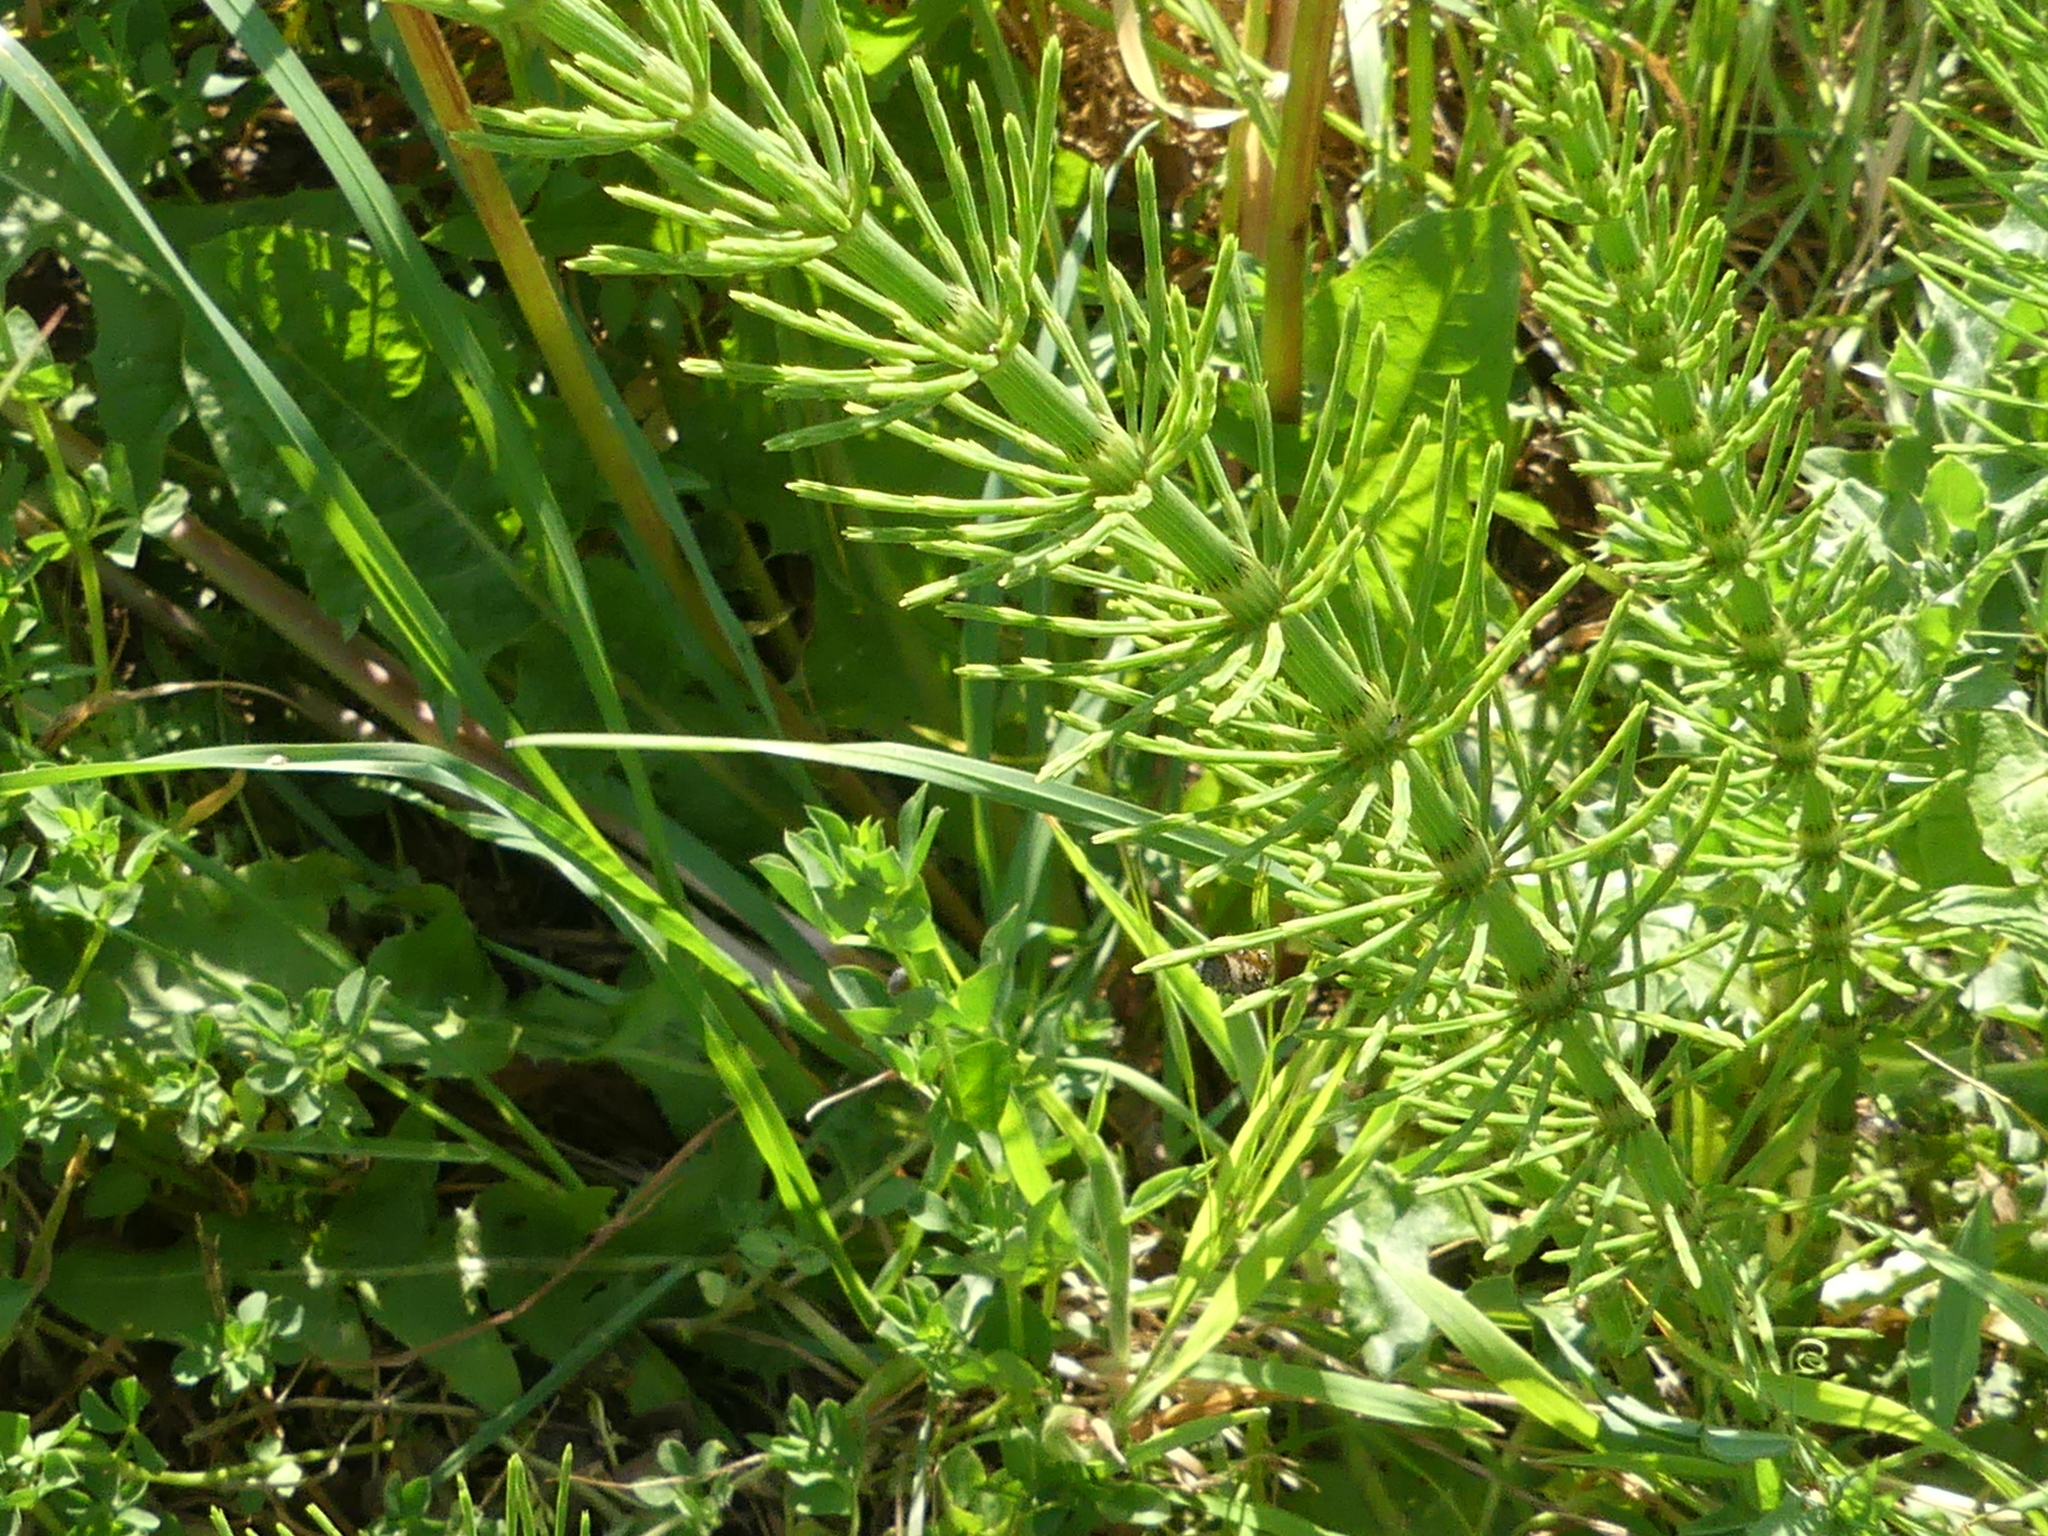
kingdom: Plantae
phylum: Tracheophyta
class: Polypodiopsida
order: Equisetales
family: Equisetaceae
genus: Equisetum
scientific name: Equisetum arvense
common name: Field horsetail
